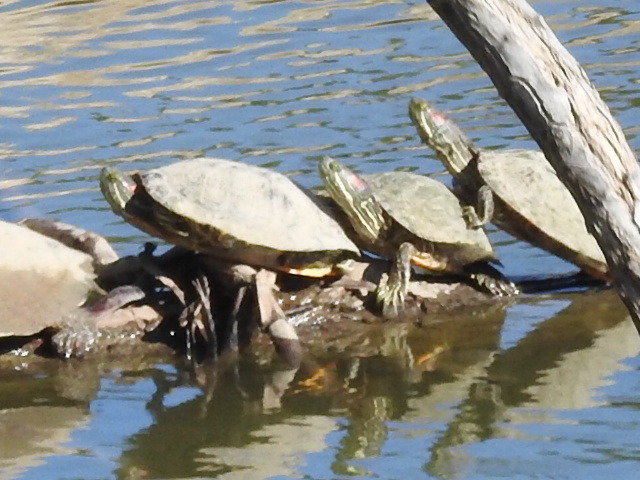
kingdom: Animalia
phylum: Chordata
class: Testudines
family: Emydidae
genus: Trachemys
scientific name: Trachemys scripta
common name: Slider
